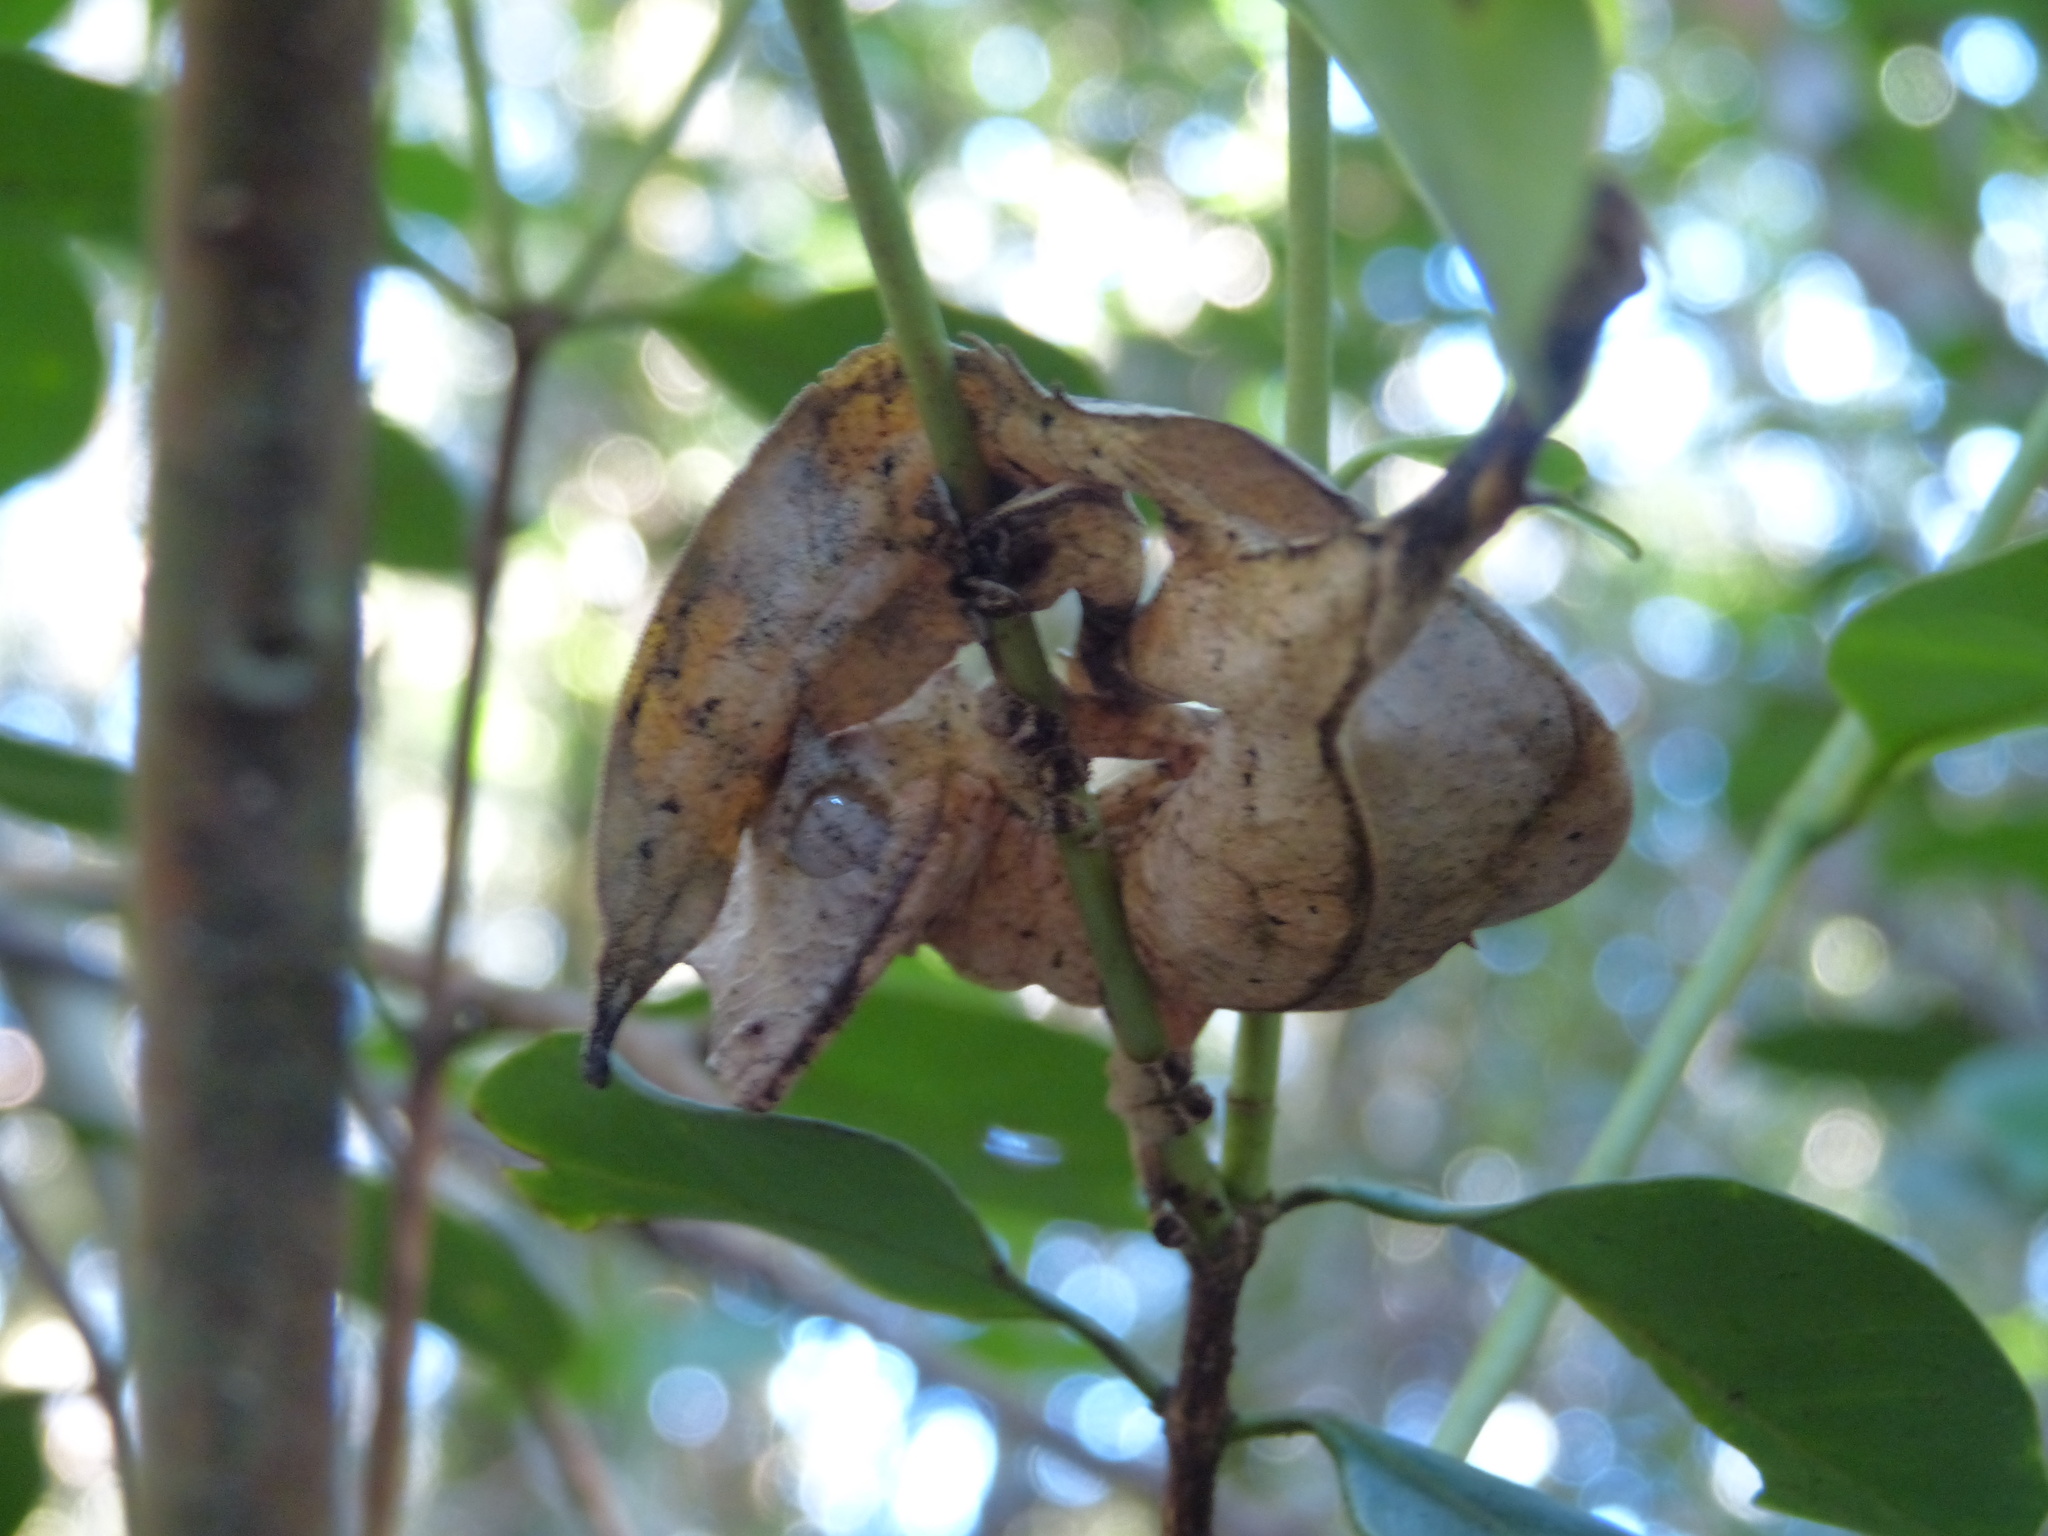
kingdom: Animalia
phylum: Chordata
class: Squamata
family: Gekkonidae
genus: Uroplatus
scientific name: Uroplatus phantasticus
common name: Phantastic leaf-tailed gecko
